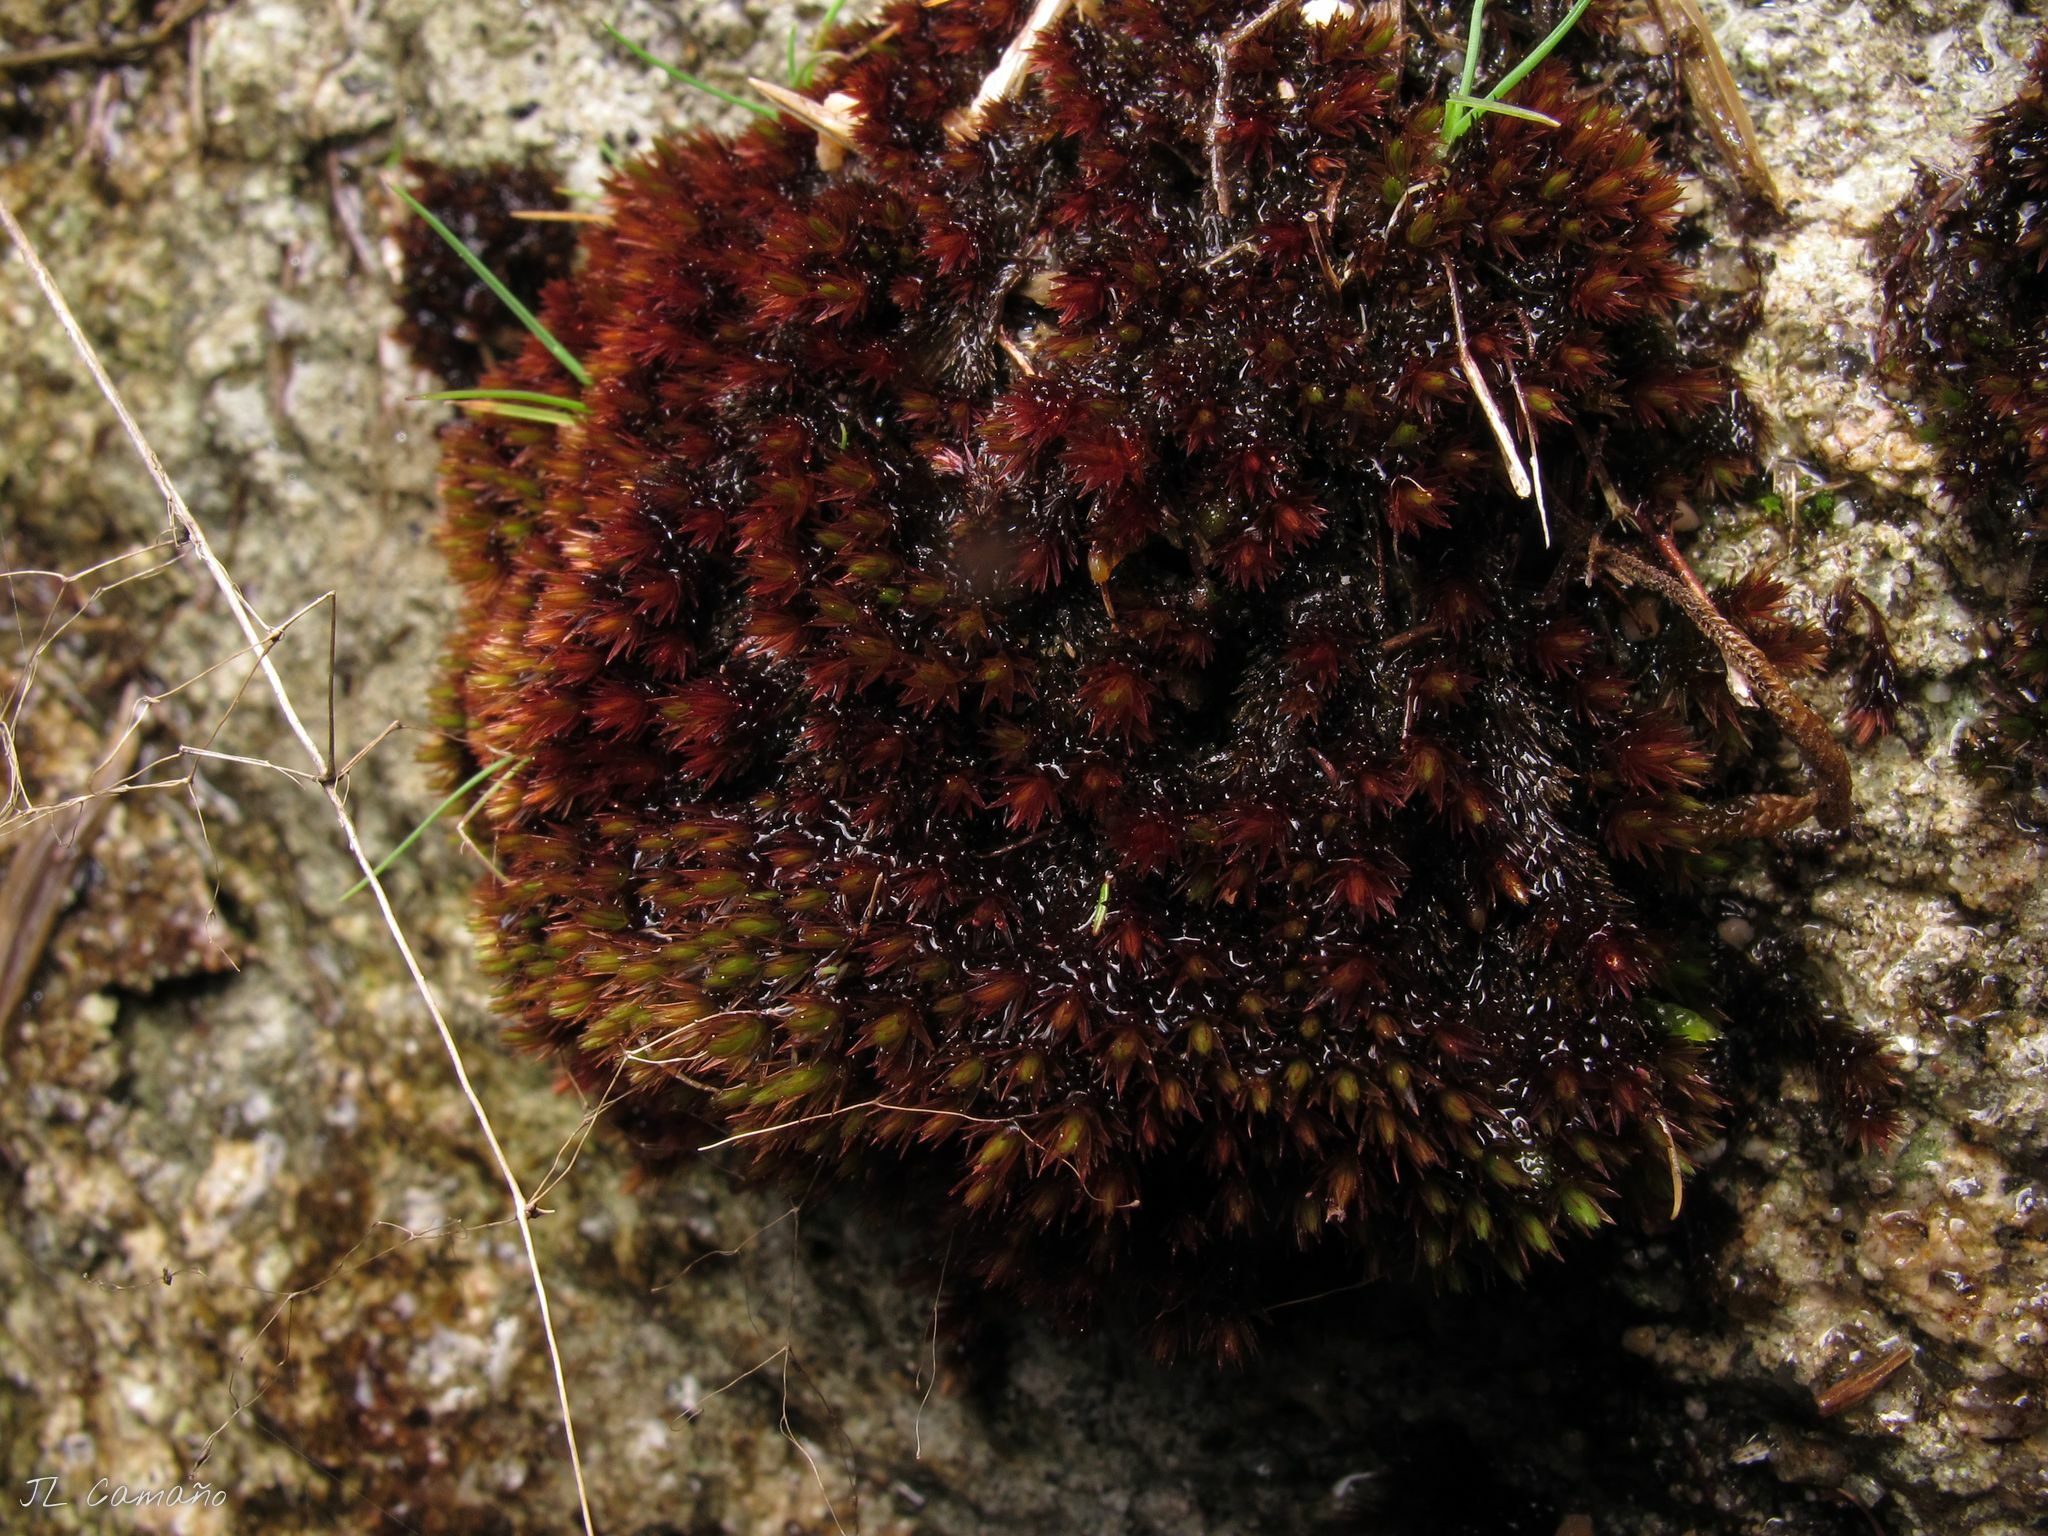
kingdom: Plantae
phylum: Bryophyta
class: Bryopsida
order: Bryales
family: Bryaceae
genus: Imbribryum
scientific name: Imbribryum alpinum
